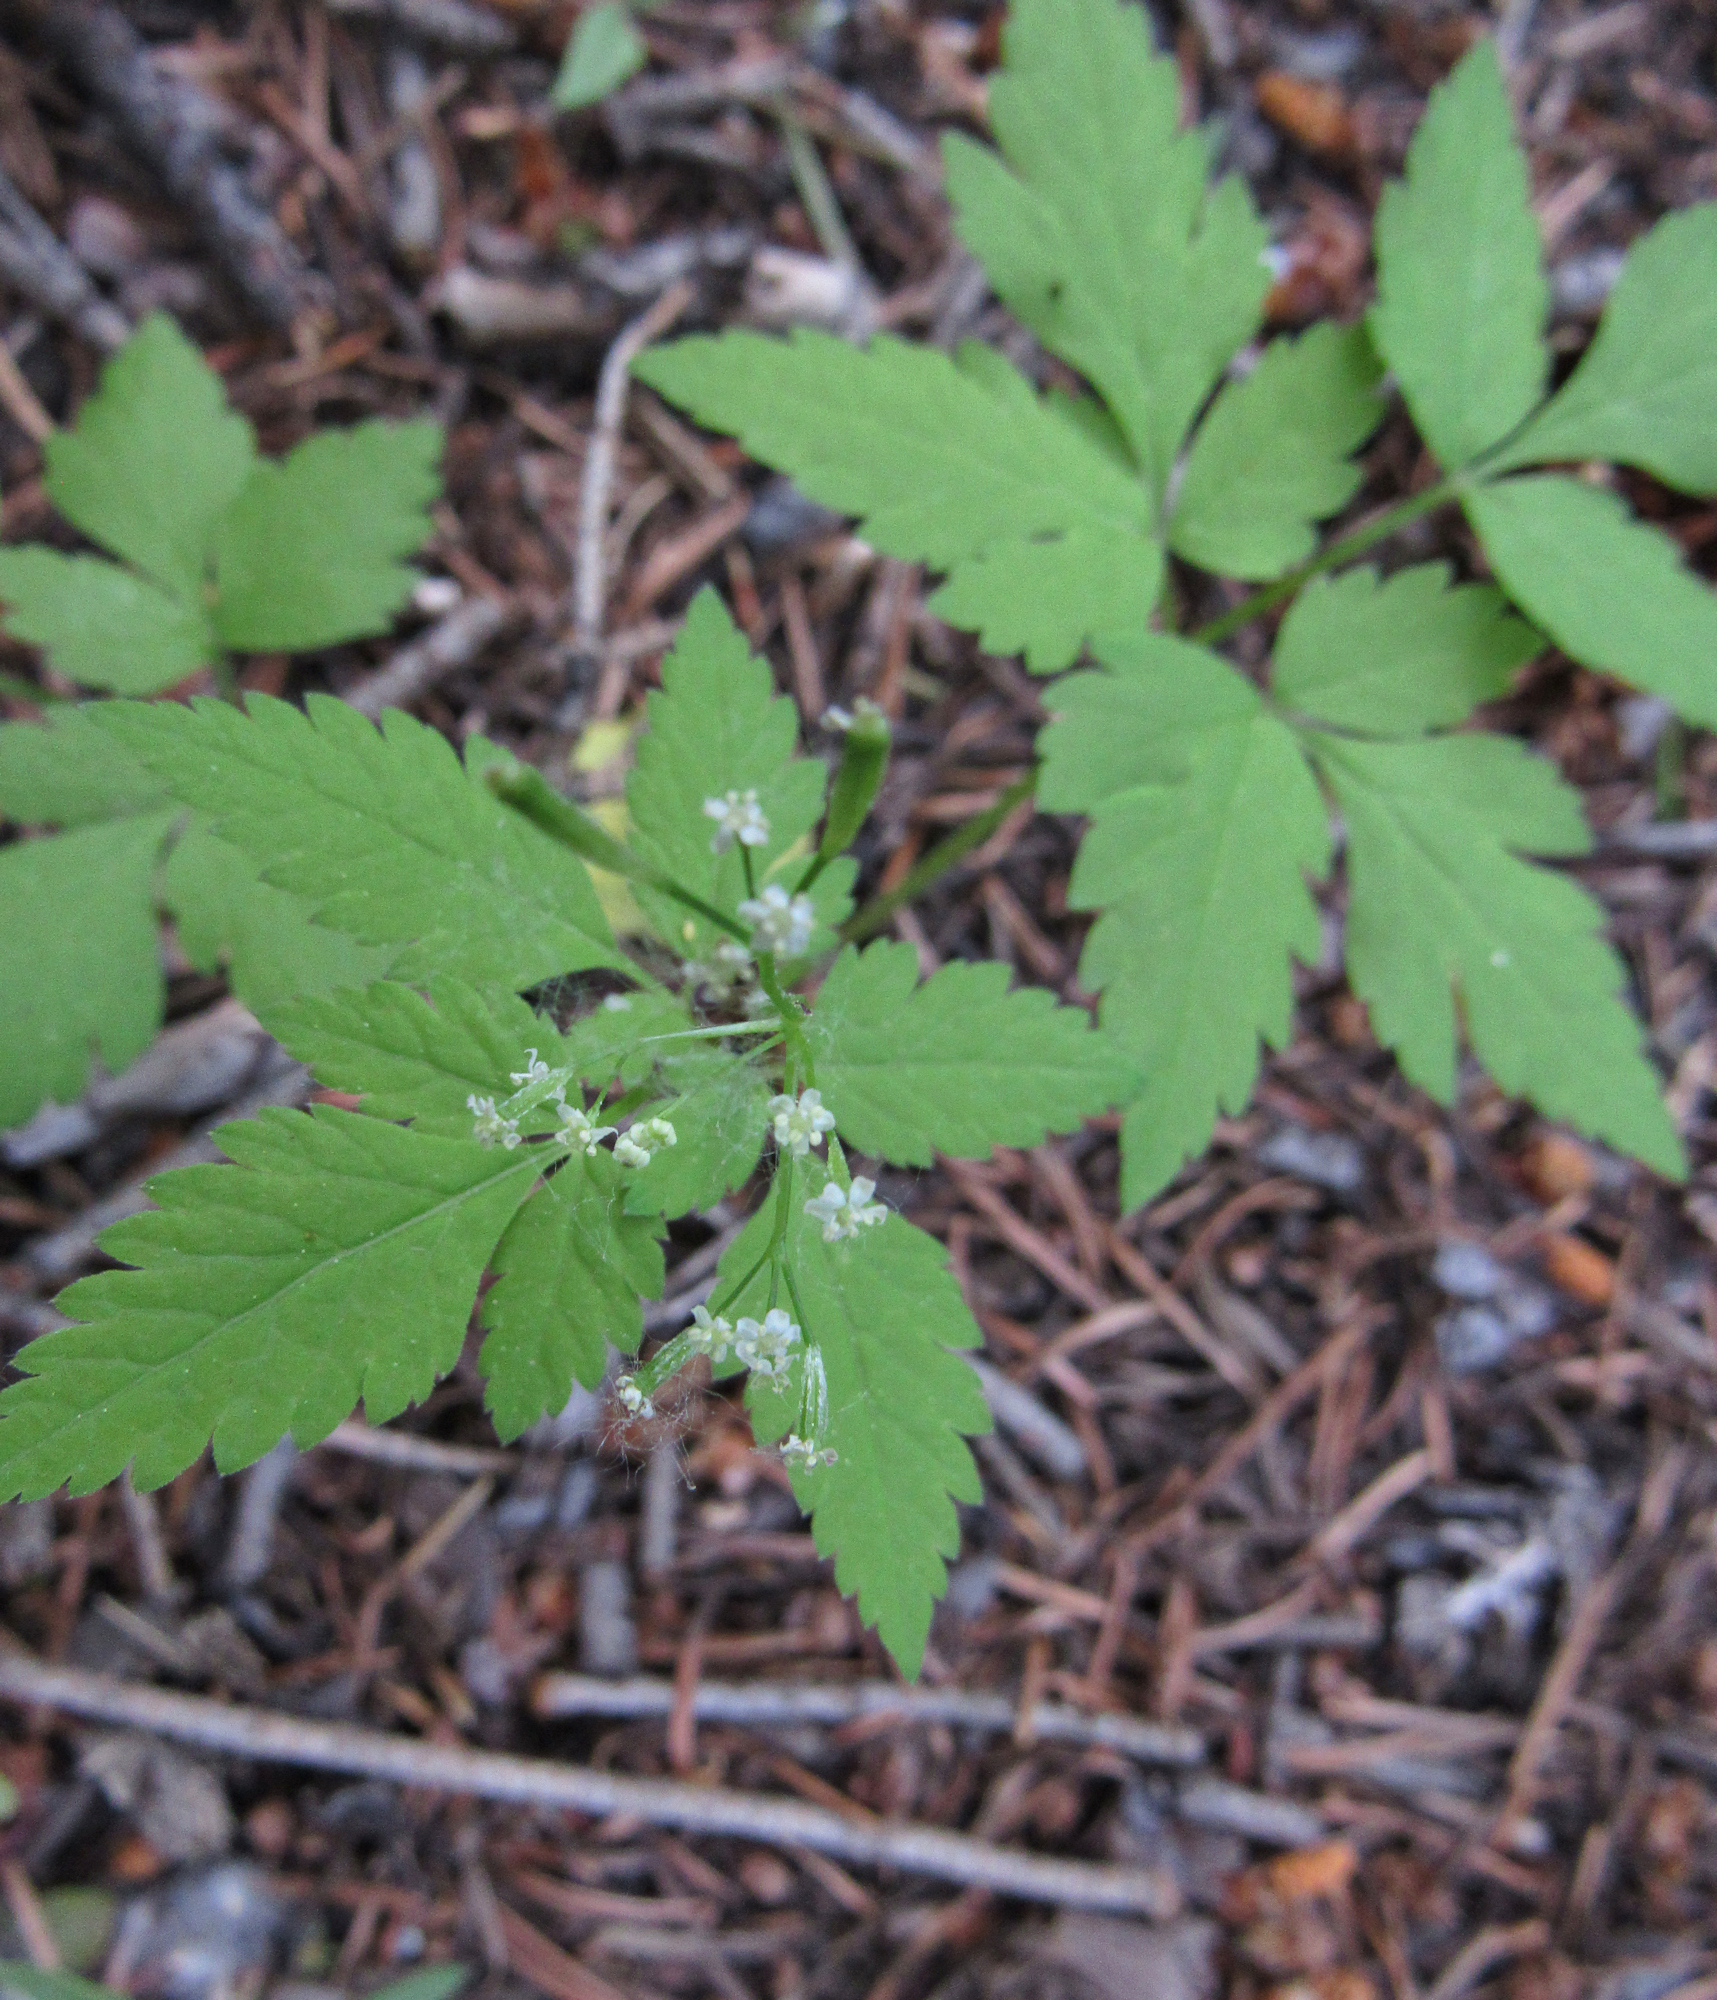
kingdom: Plantae
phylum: Tracheophyta
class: Magnoliopsida
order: Apiales
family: Apiaceae
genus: Osmorhiza
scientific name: Osmorhiza berteroi
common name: Mountain sweet cicely
